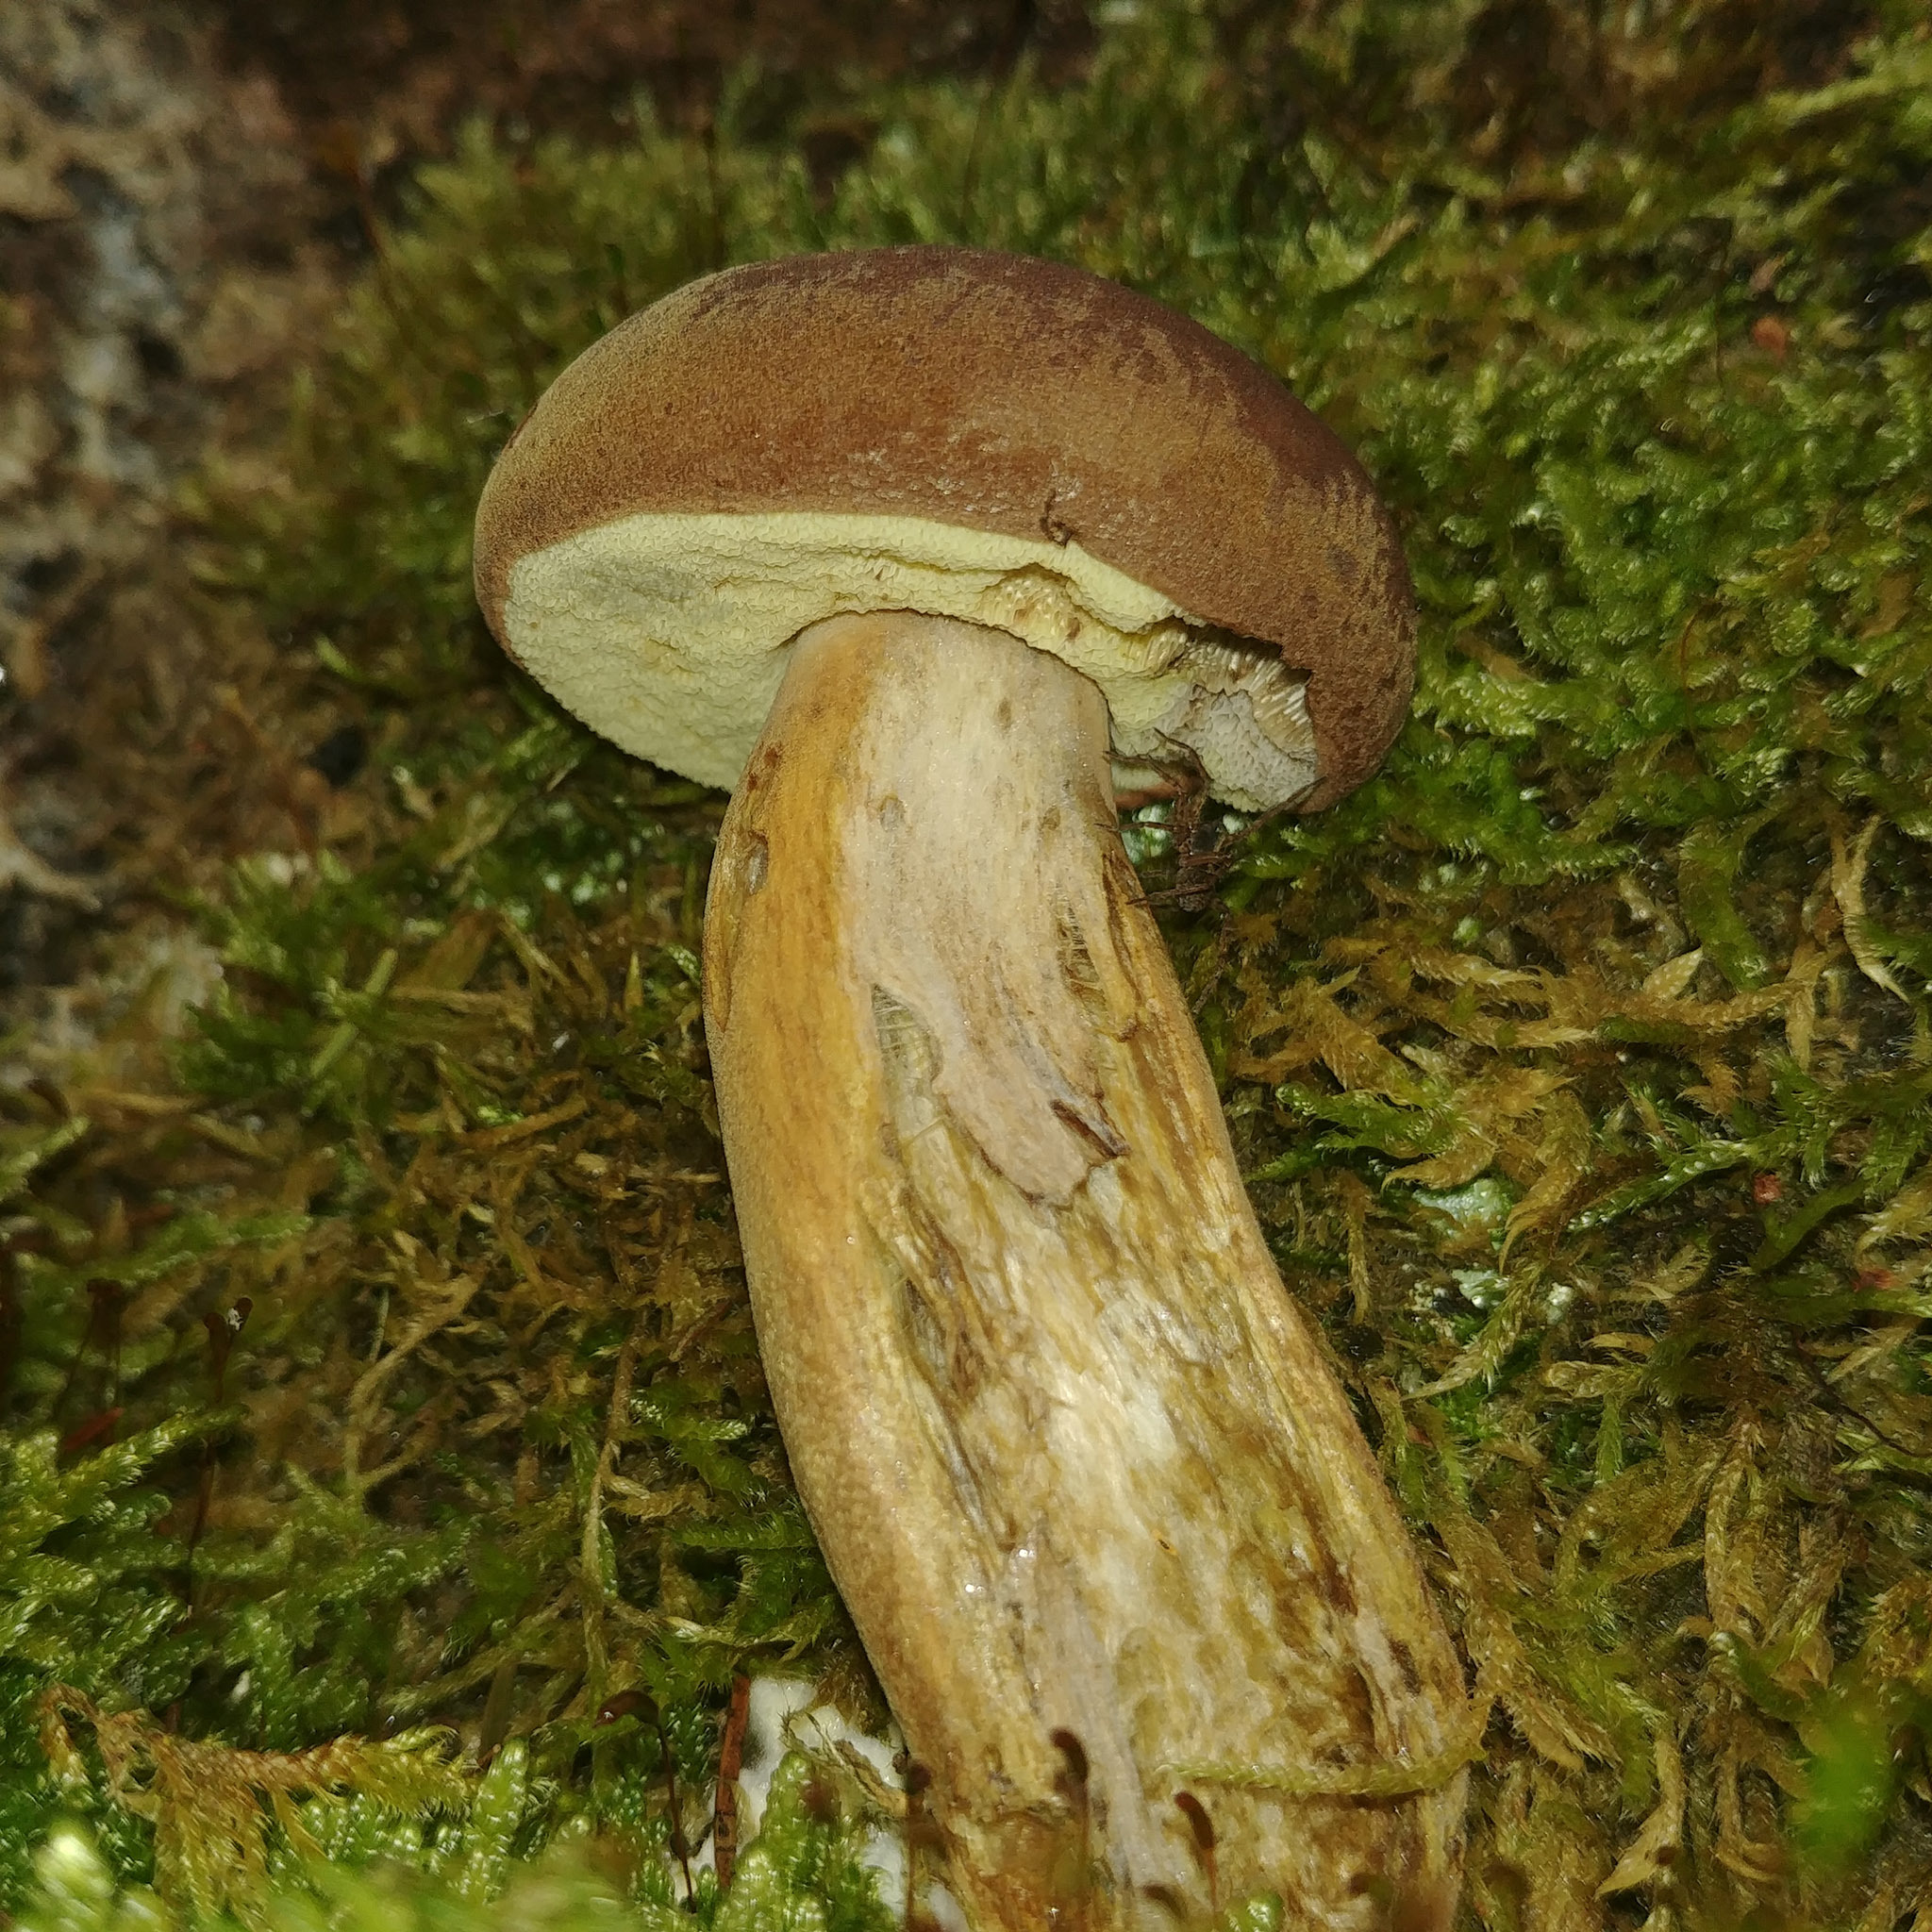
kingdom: Fungi
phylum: Basidiomycota
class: Agaricomycetes
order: Boletales
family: Boletaceae
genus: Imleria
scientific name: Imleria badia
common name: Bay bolete
